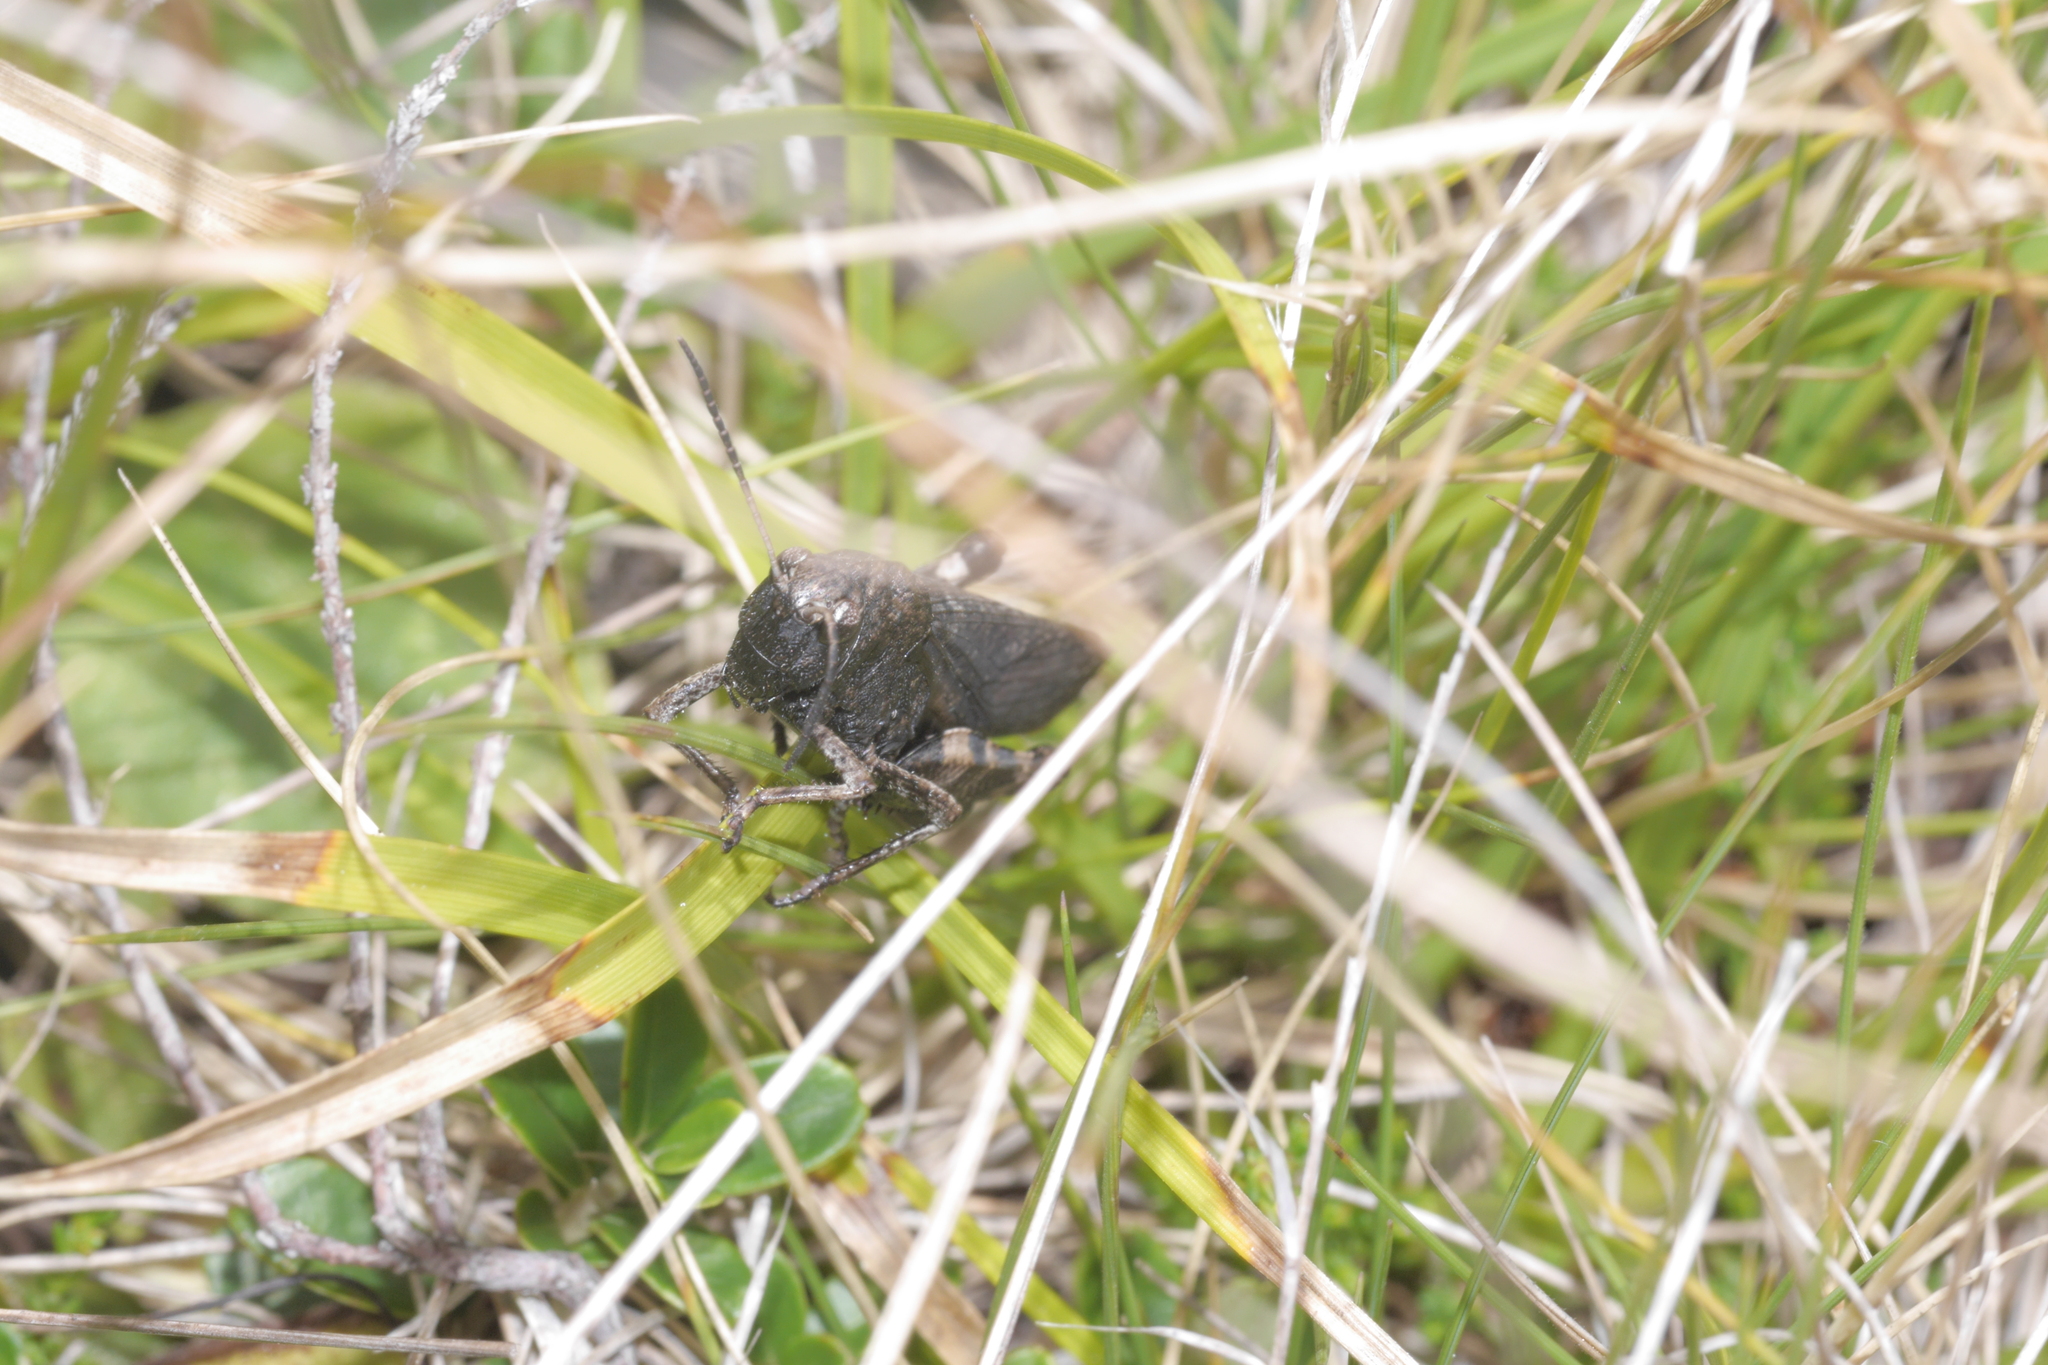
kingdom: Animalia
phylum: Arthropoda
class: Insecta
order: Orthoptera
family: Acrididae
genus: Psophus
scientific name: Psophus stridulus
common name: Rattle grasshopper
